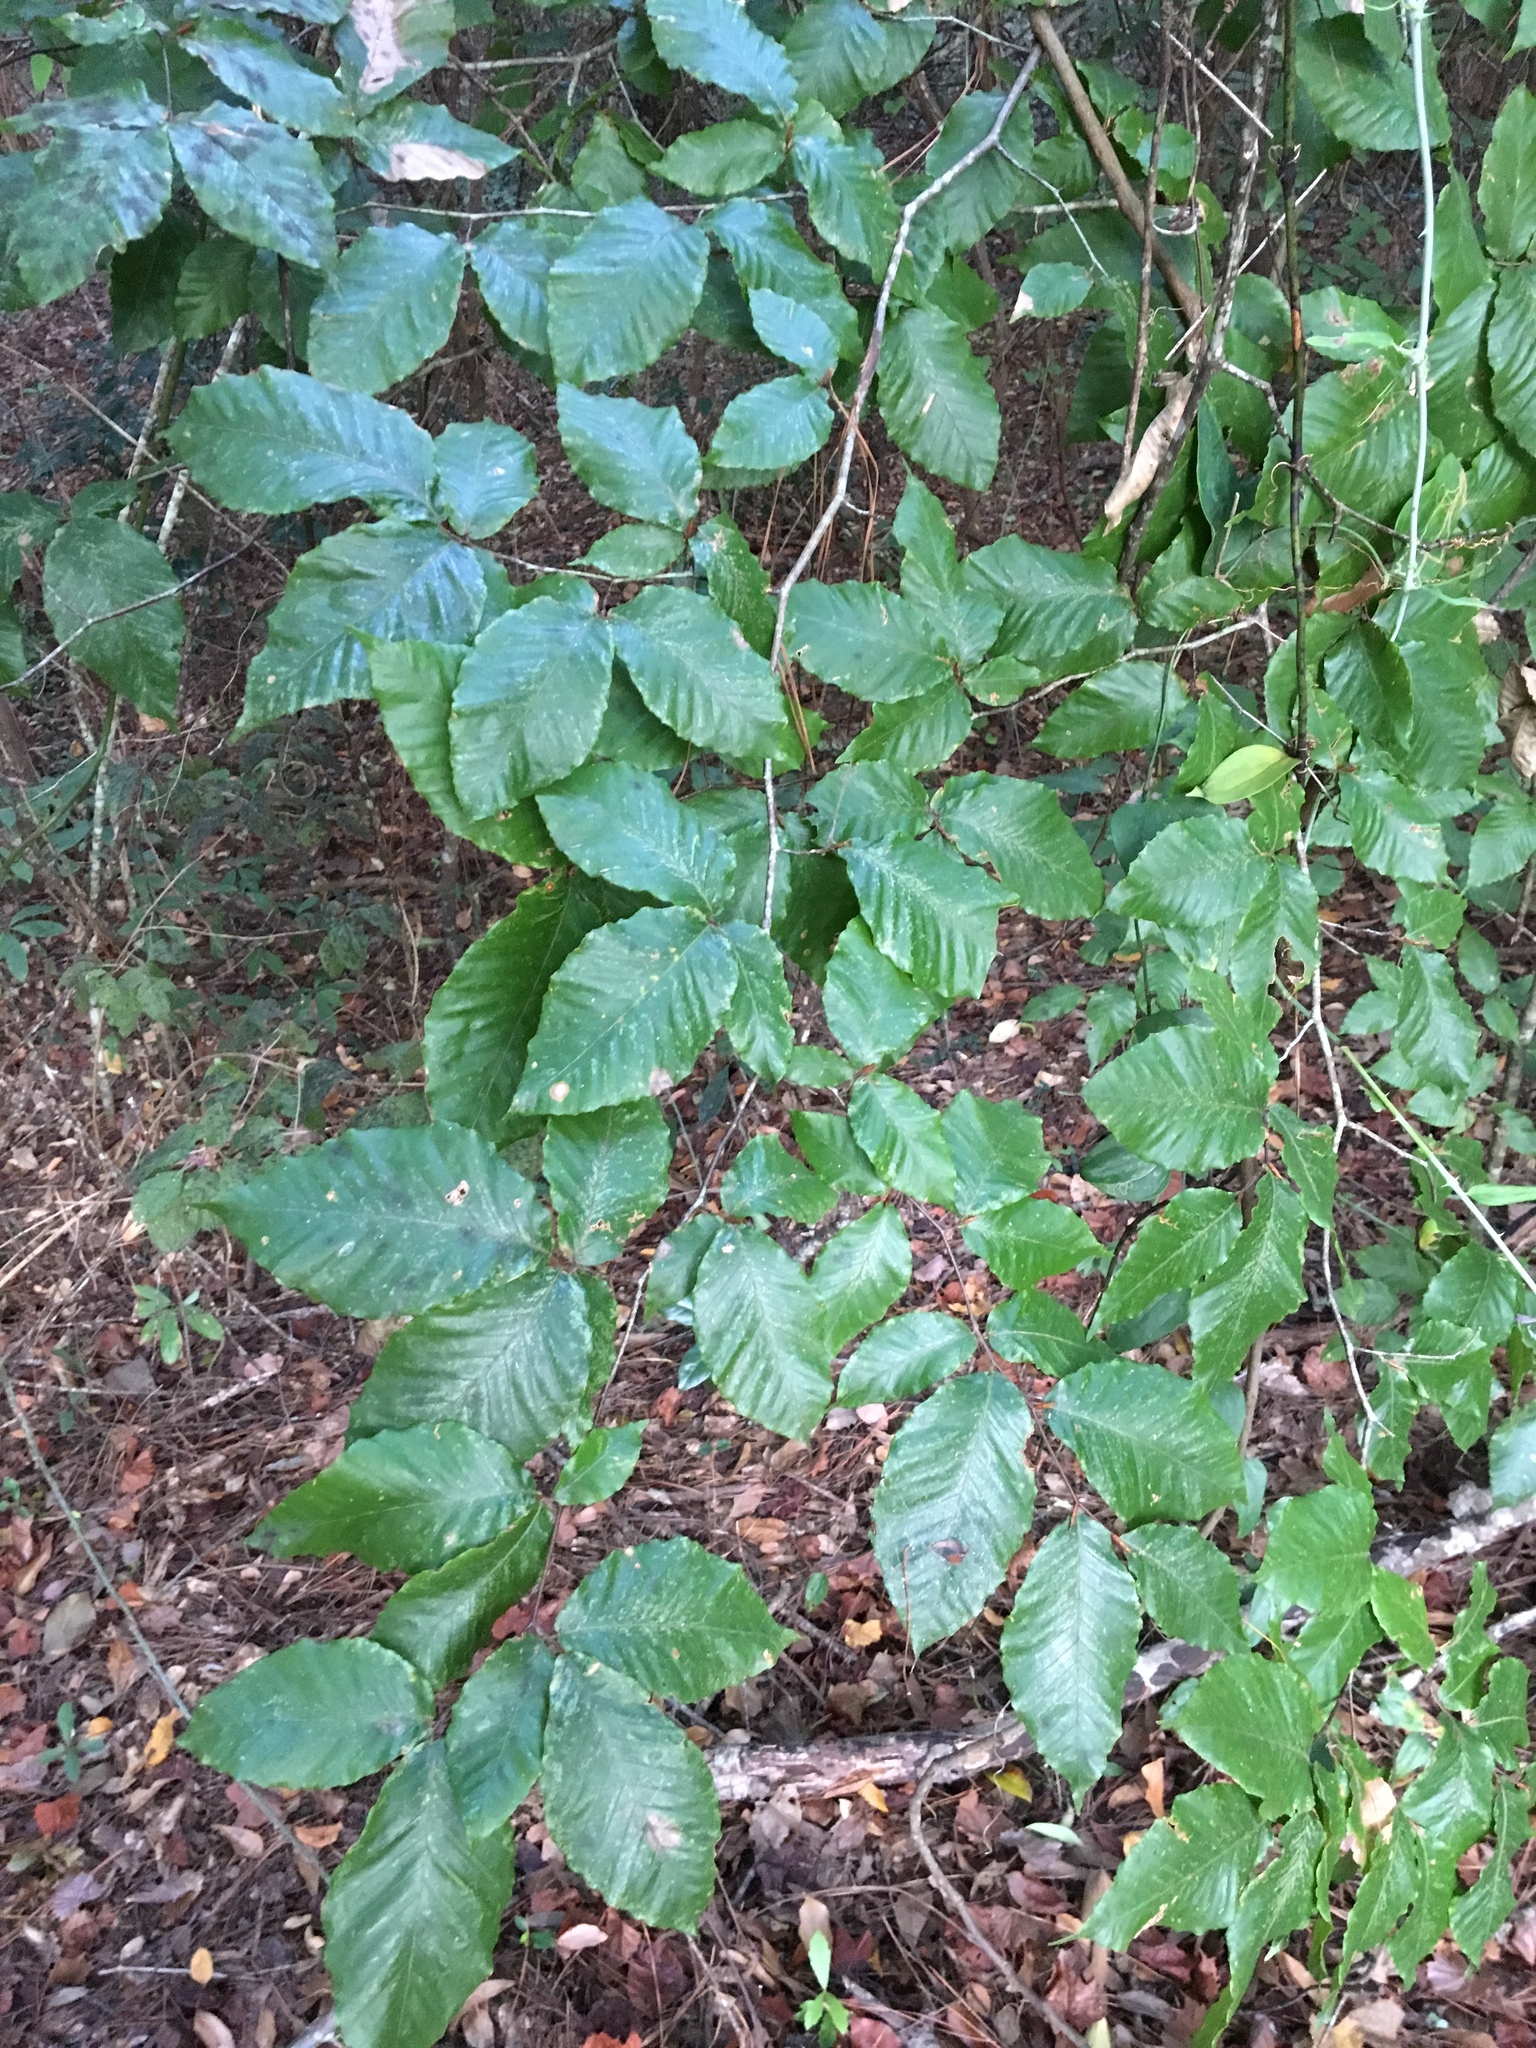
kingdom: Plantae
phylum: Tracheophyta
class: Magnoliopsida
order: Fagales
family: Fagaceae
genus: Fagus
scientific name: Fagus grandifolia
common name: American beech
